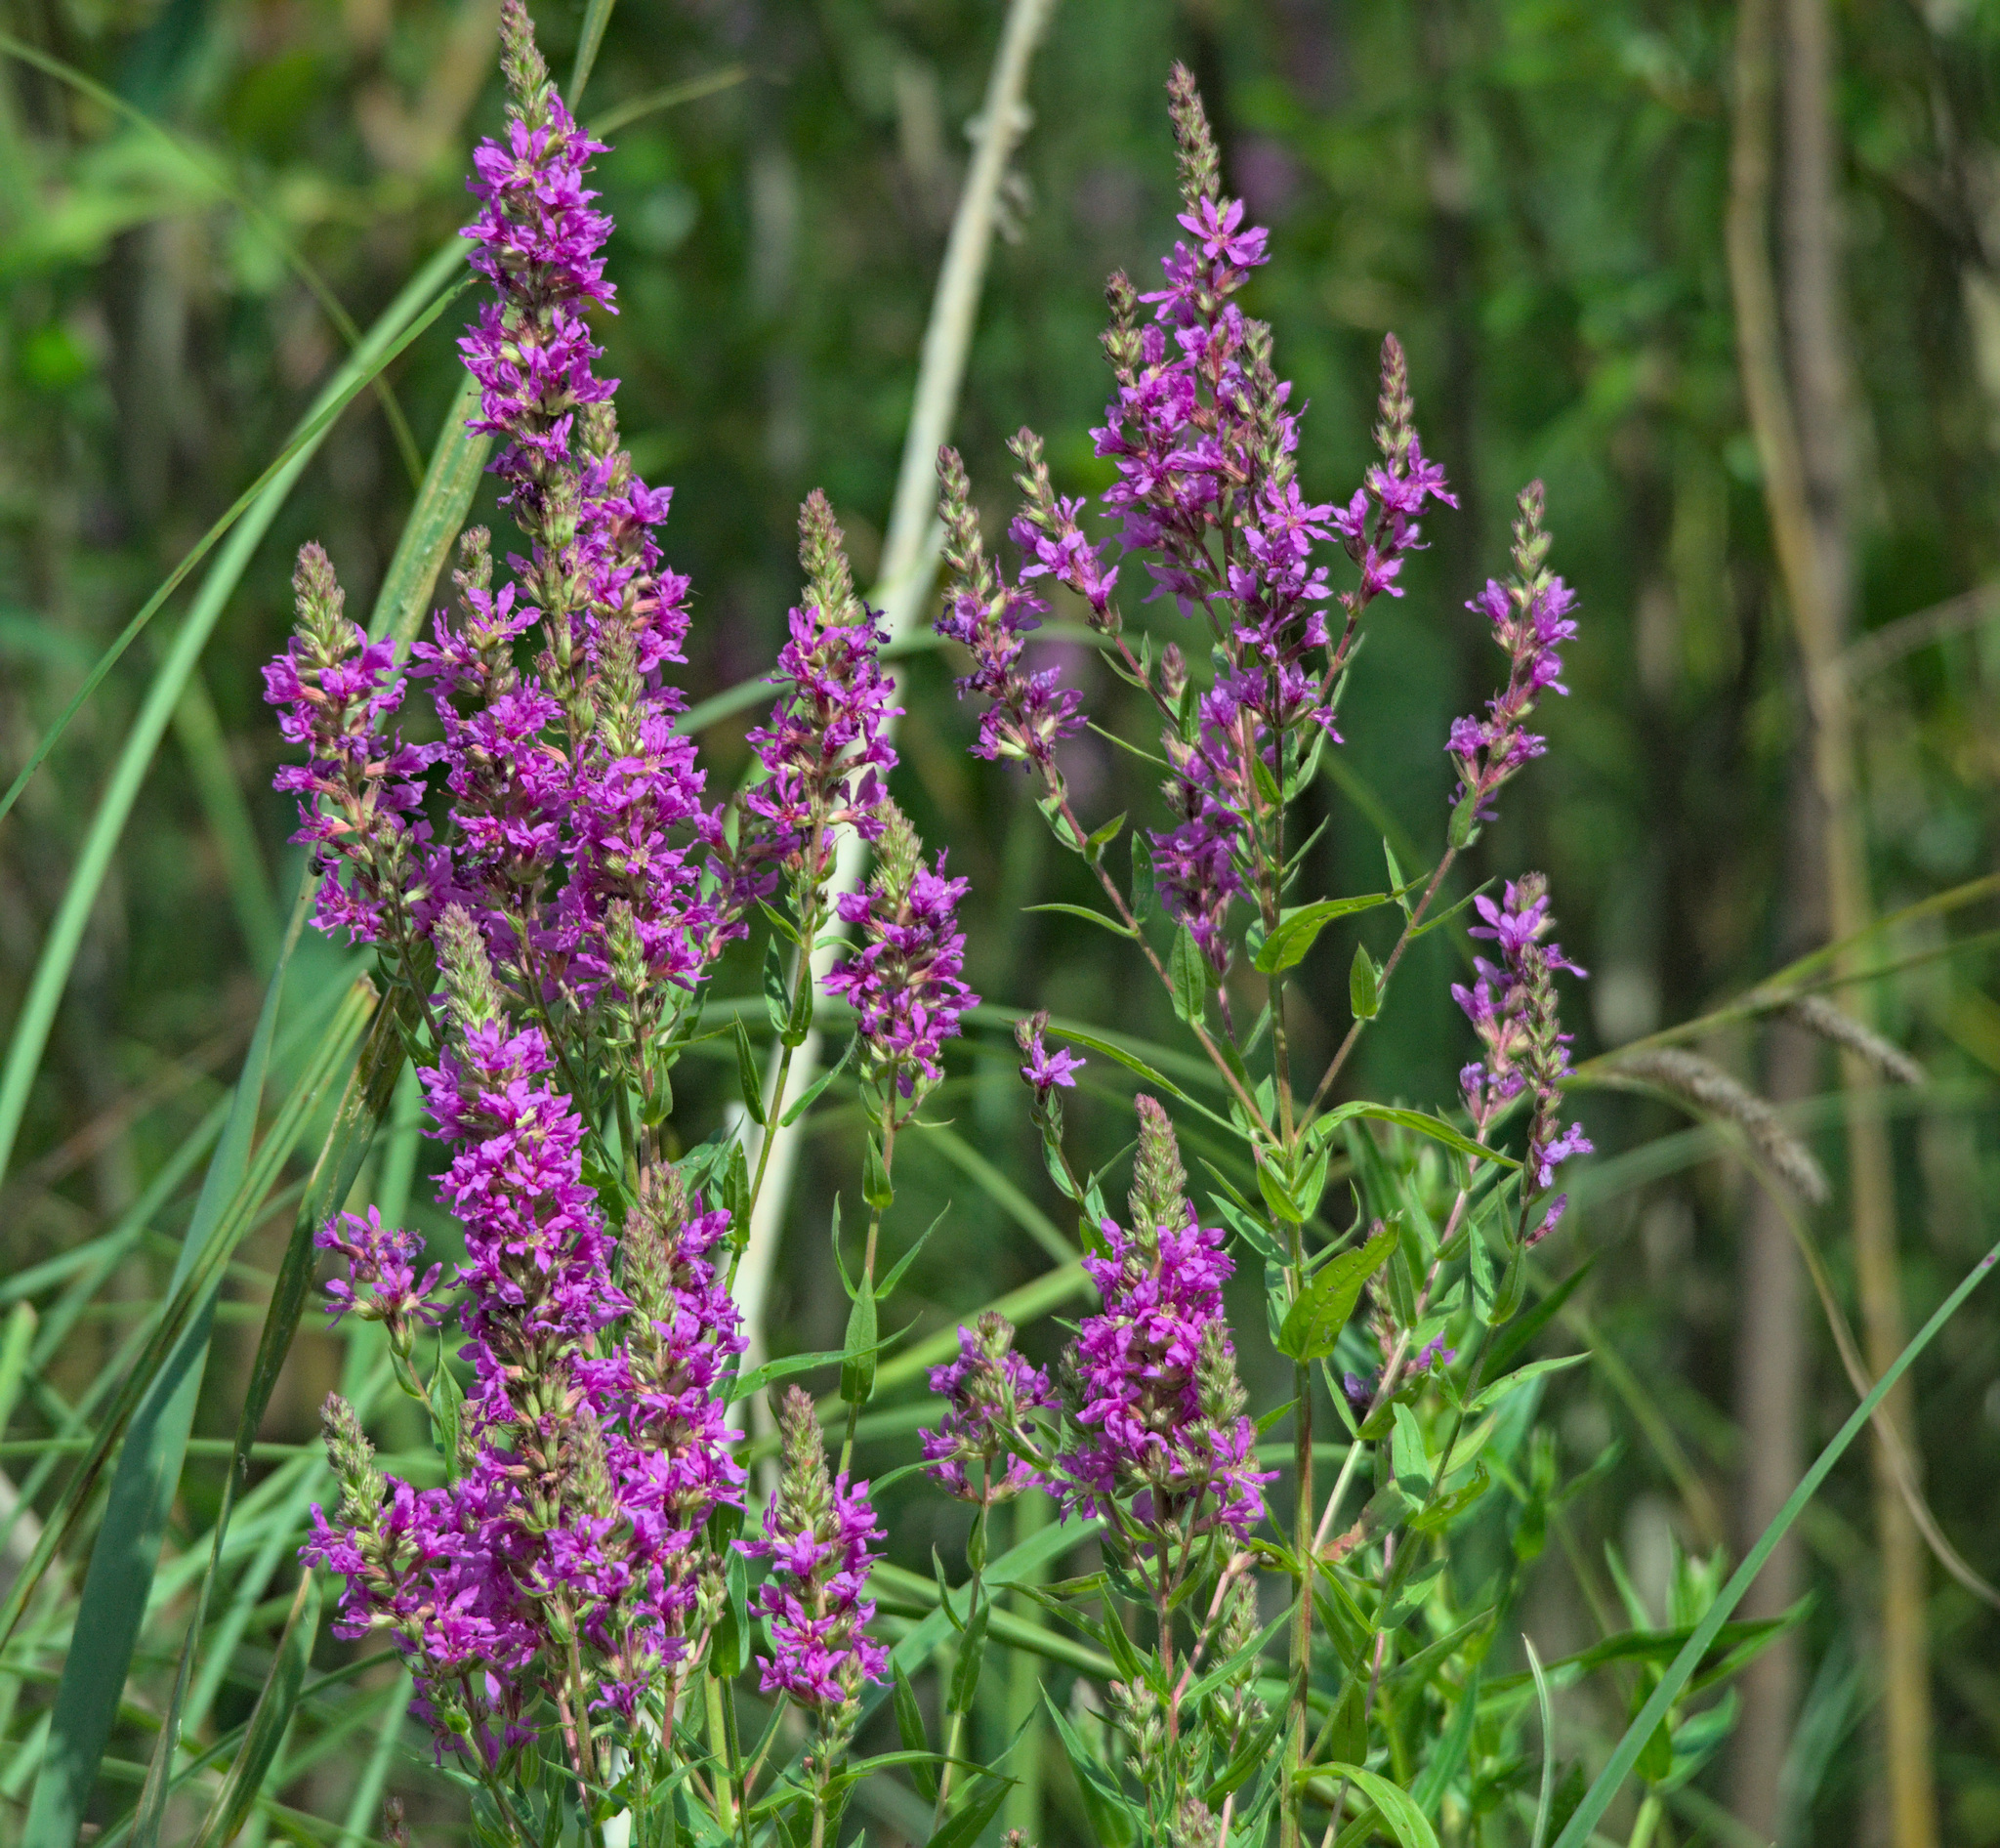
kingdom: Plantae
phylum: Tracheophyta
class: Magnoliopsida
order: Myrtales
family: Lythraceae
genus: Lythrum
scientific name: Lythrum salicaria
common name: Purple loosestrife
